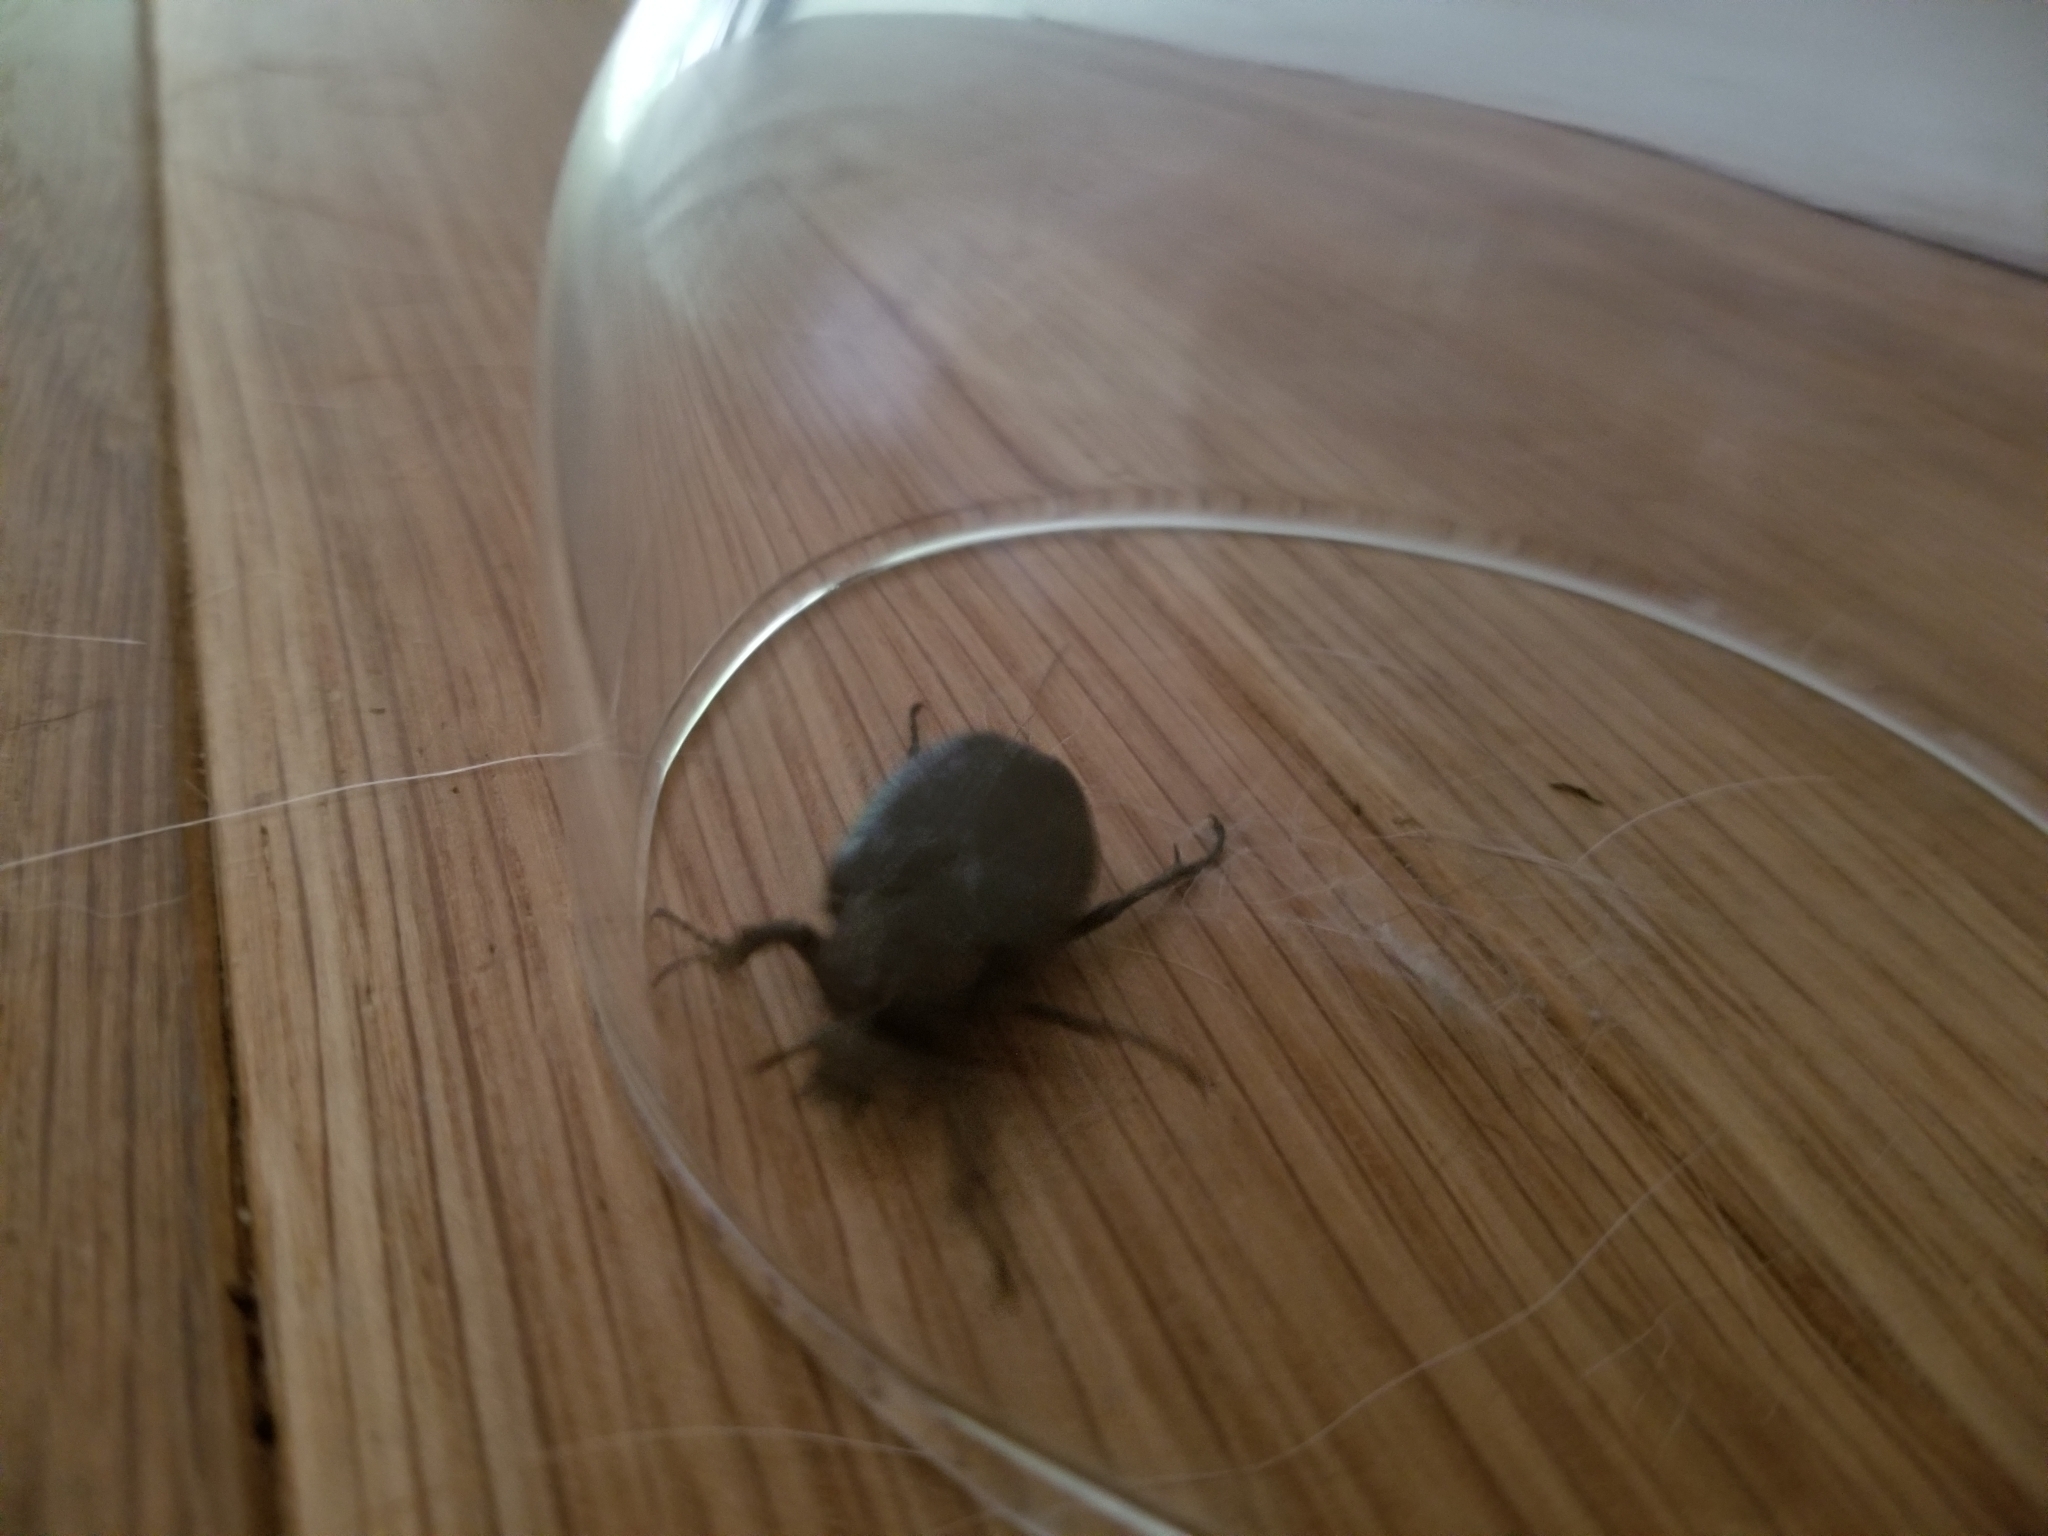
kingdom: Animalia
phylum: Arthropoda
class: Insecta
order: Coleoptera
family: Scarabaeidae
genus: Osmoderma
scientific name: Osmoderma scabra
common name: Rough hermit beetle
